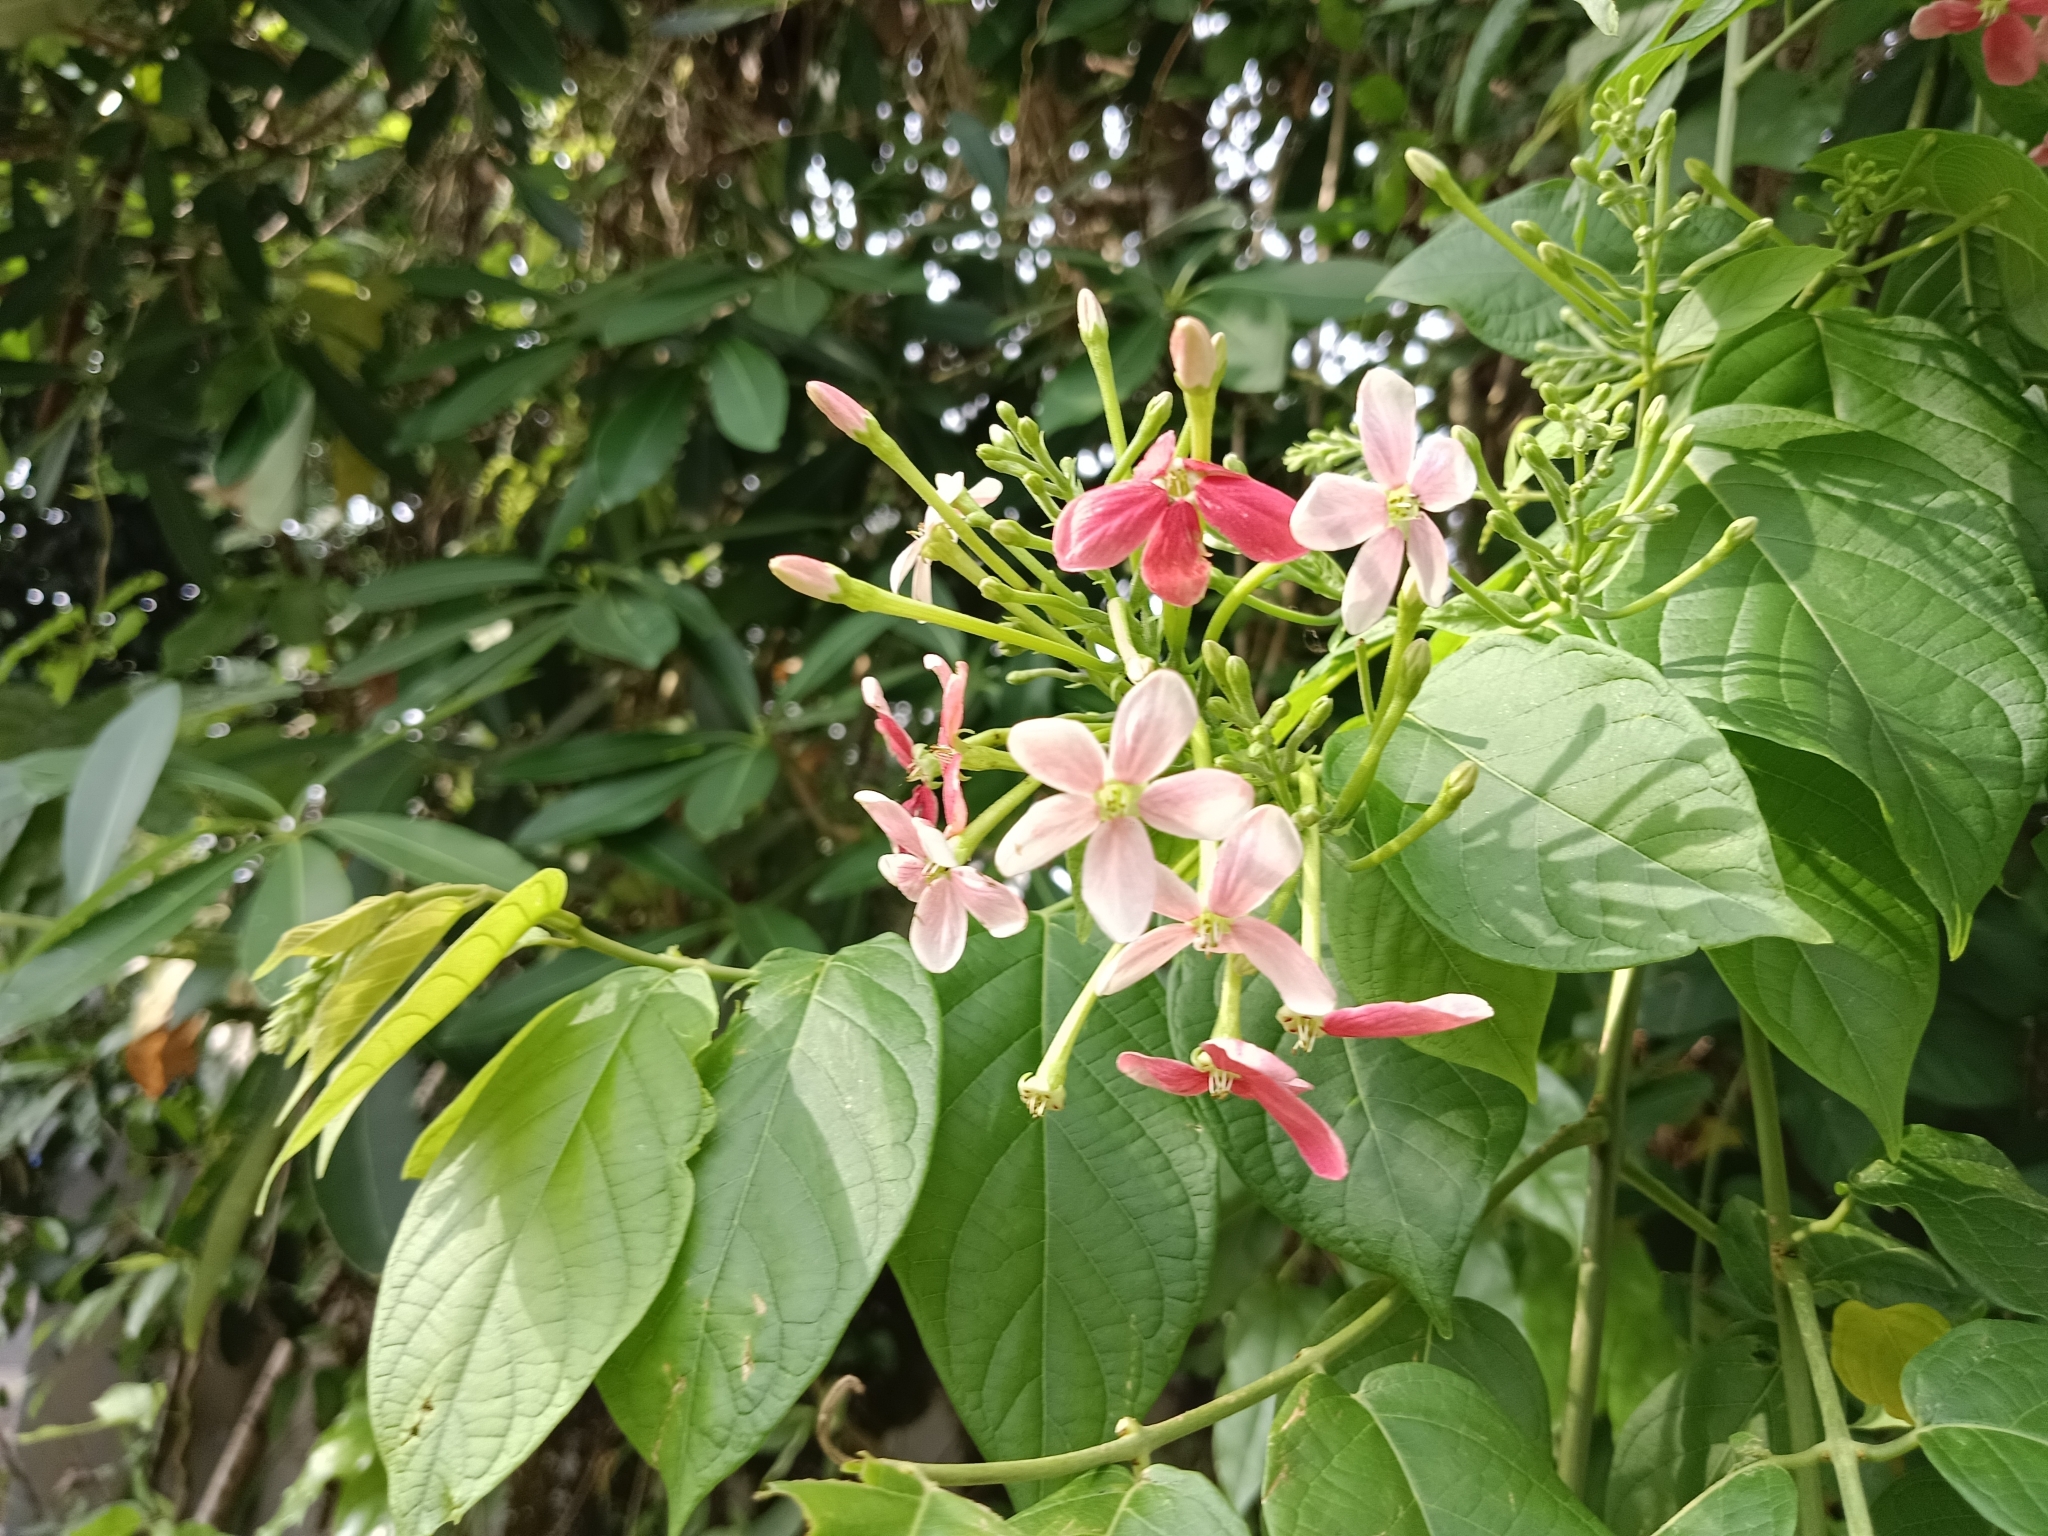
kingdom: Plantae
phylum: Tracheophyta
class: Magnoliopsida
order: Myrtales
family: Combretaceae
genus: Combretum
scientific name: Combretum indicum
